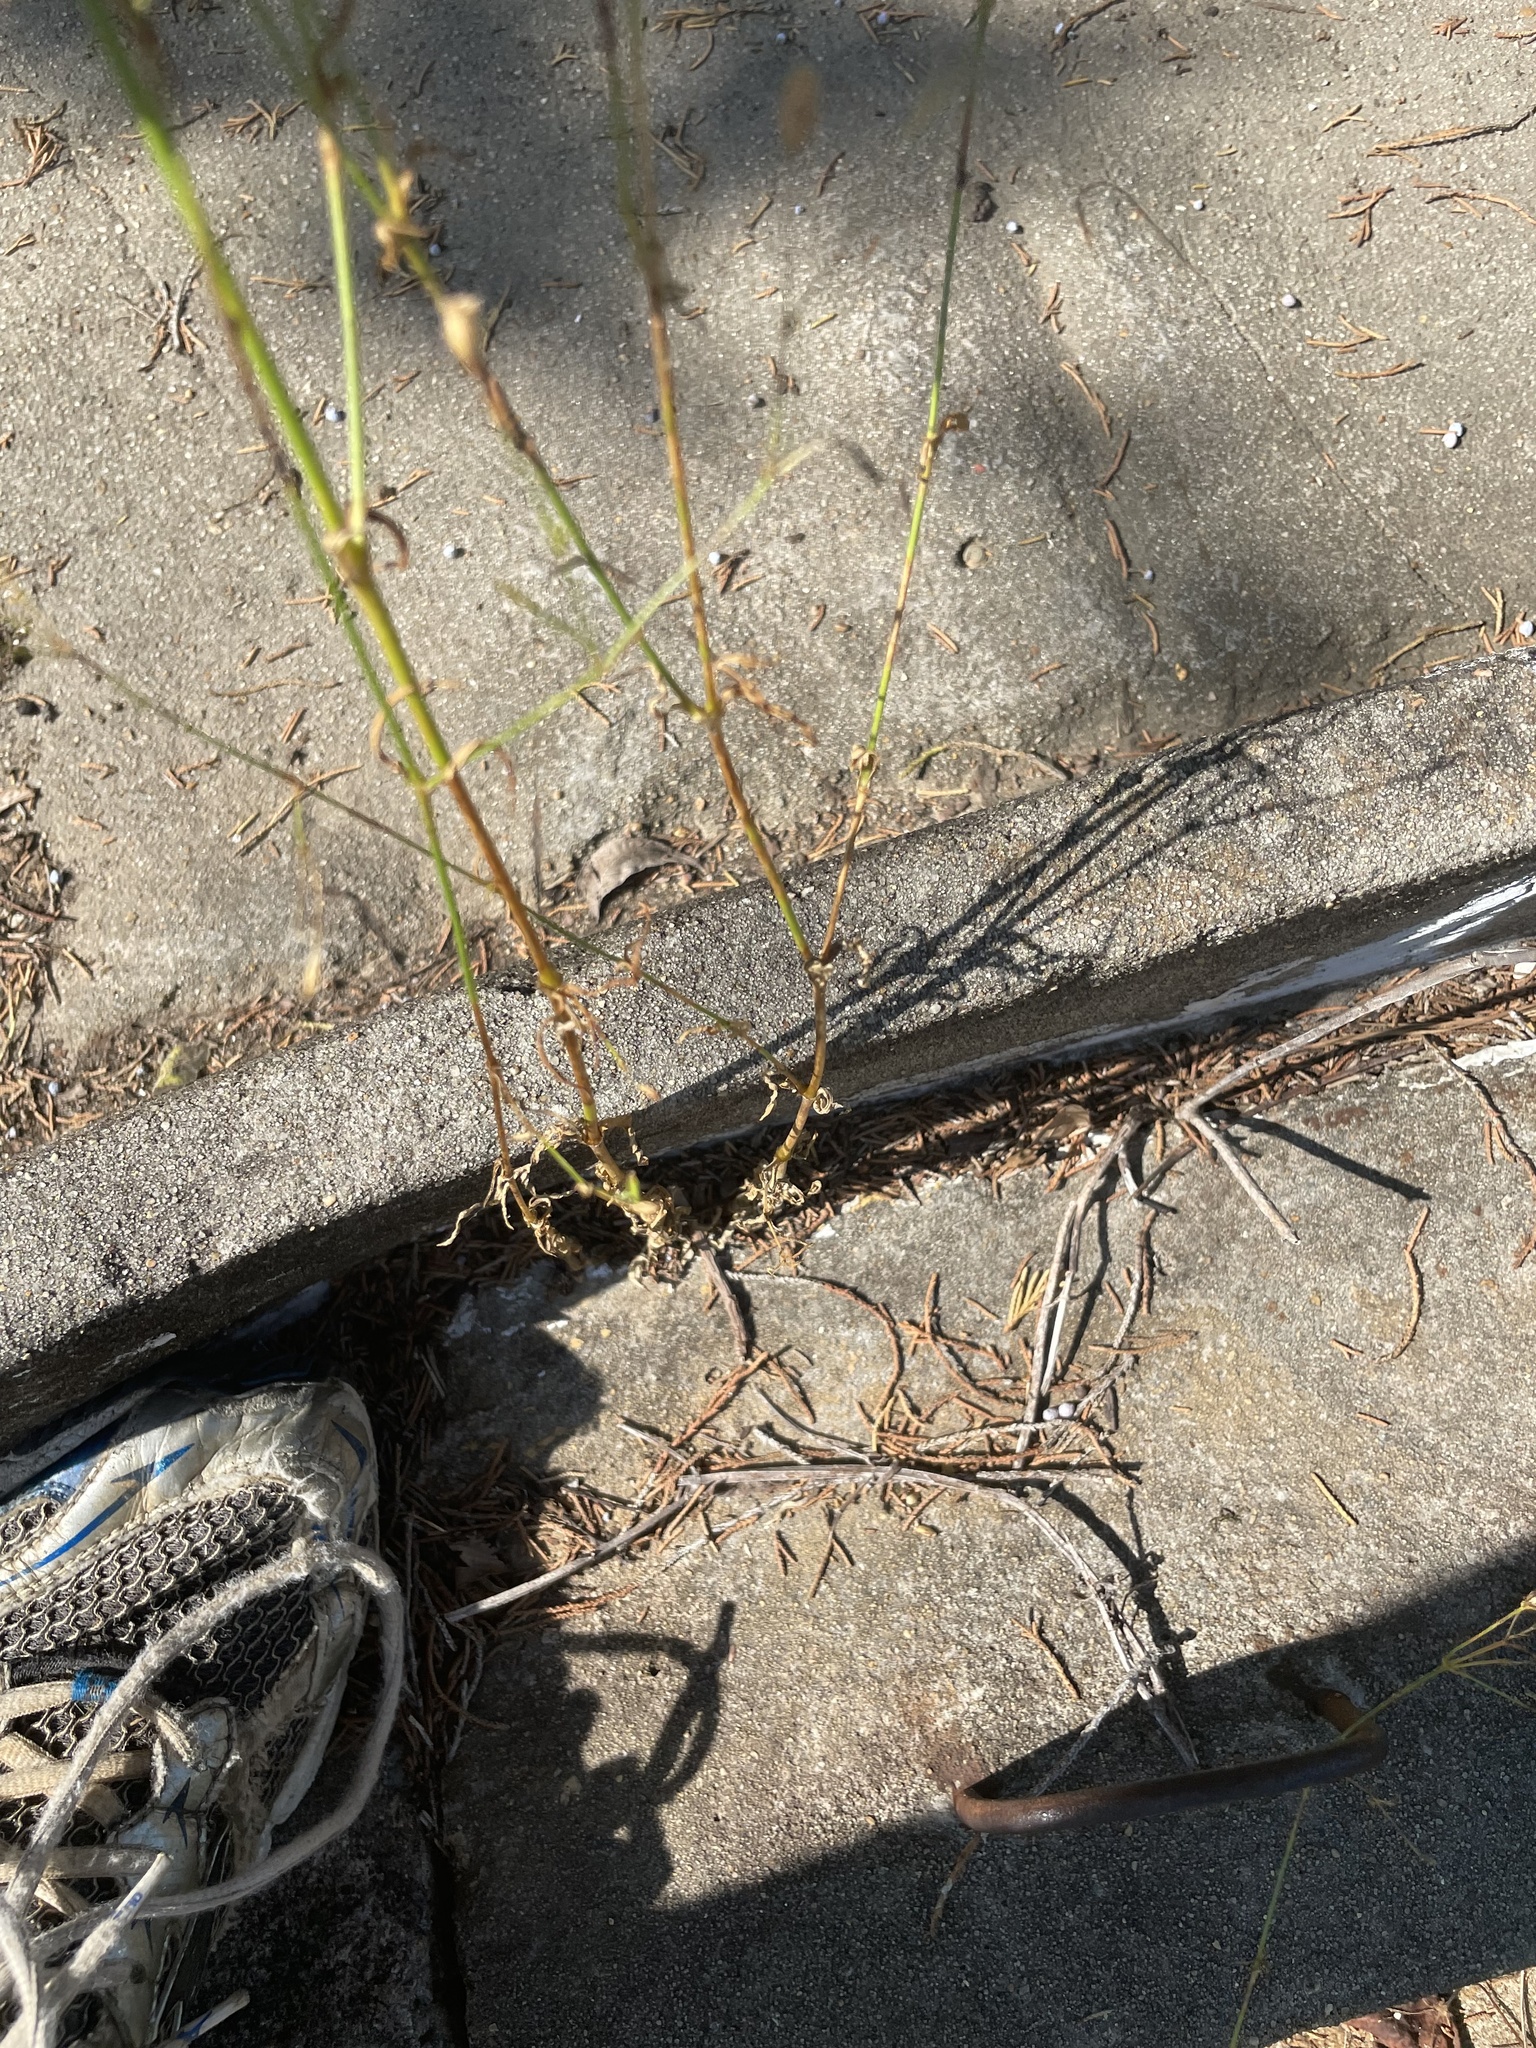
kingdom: Plantae
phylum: Tracheophyta
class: Magnoliopsida
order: Caryophyllales
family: Caryophyllaceae
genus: Silene
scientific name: Silene antirrhina
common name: Sleepy catchfly
